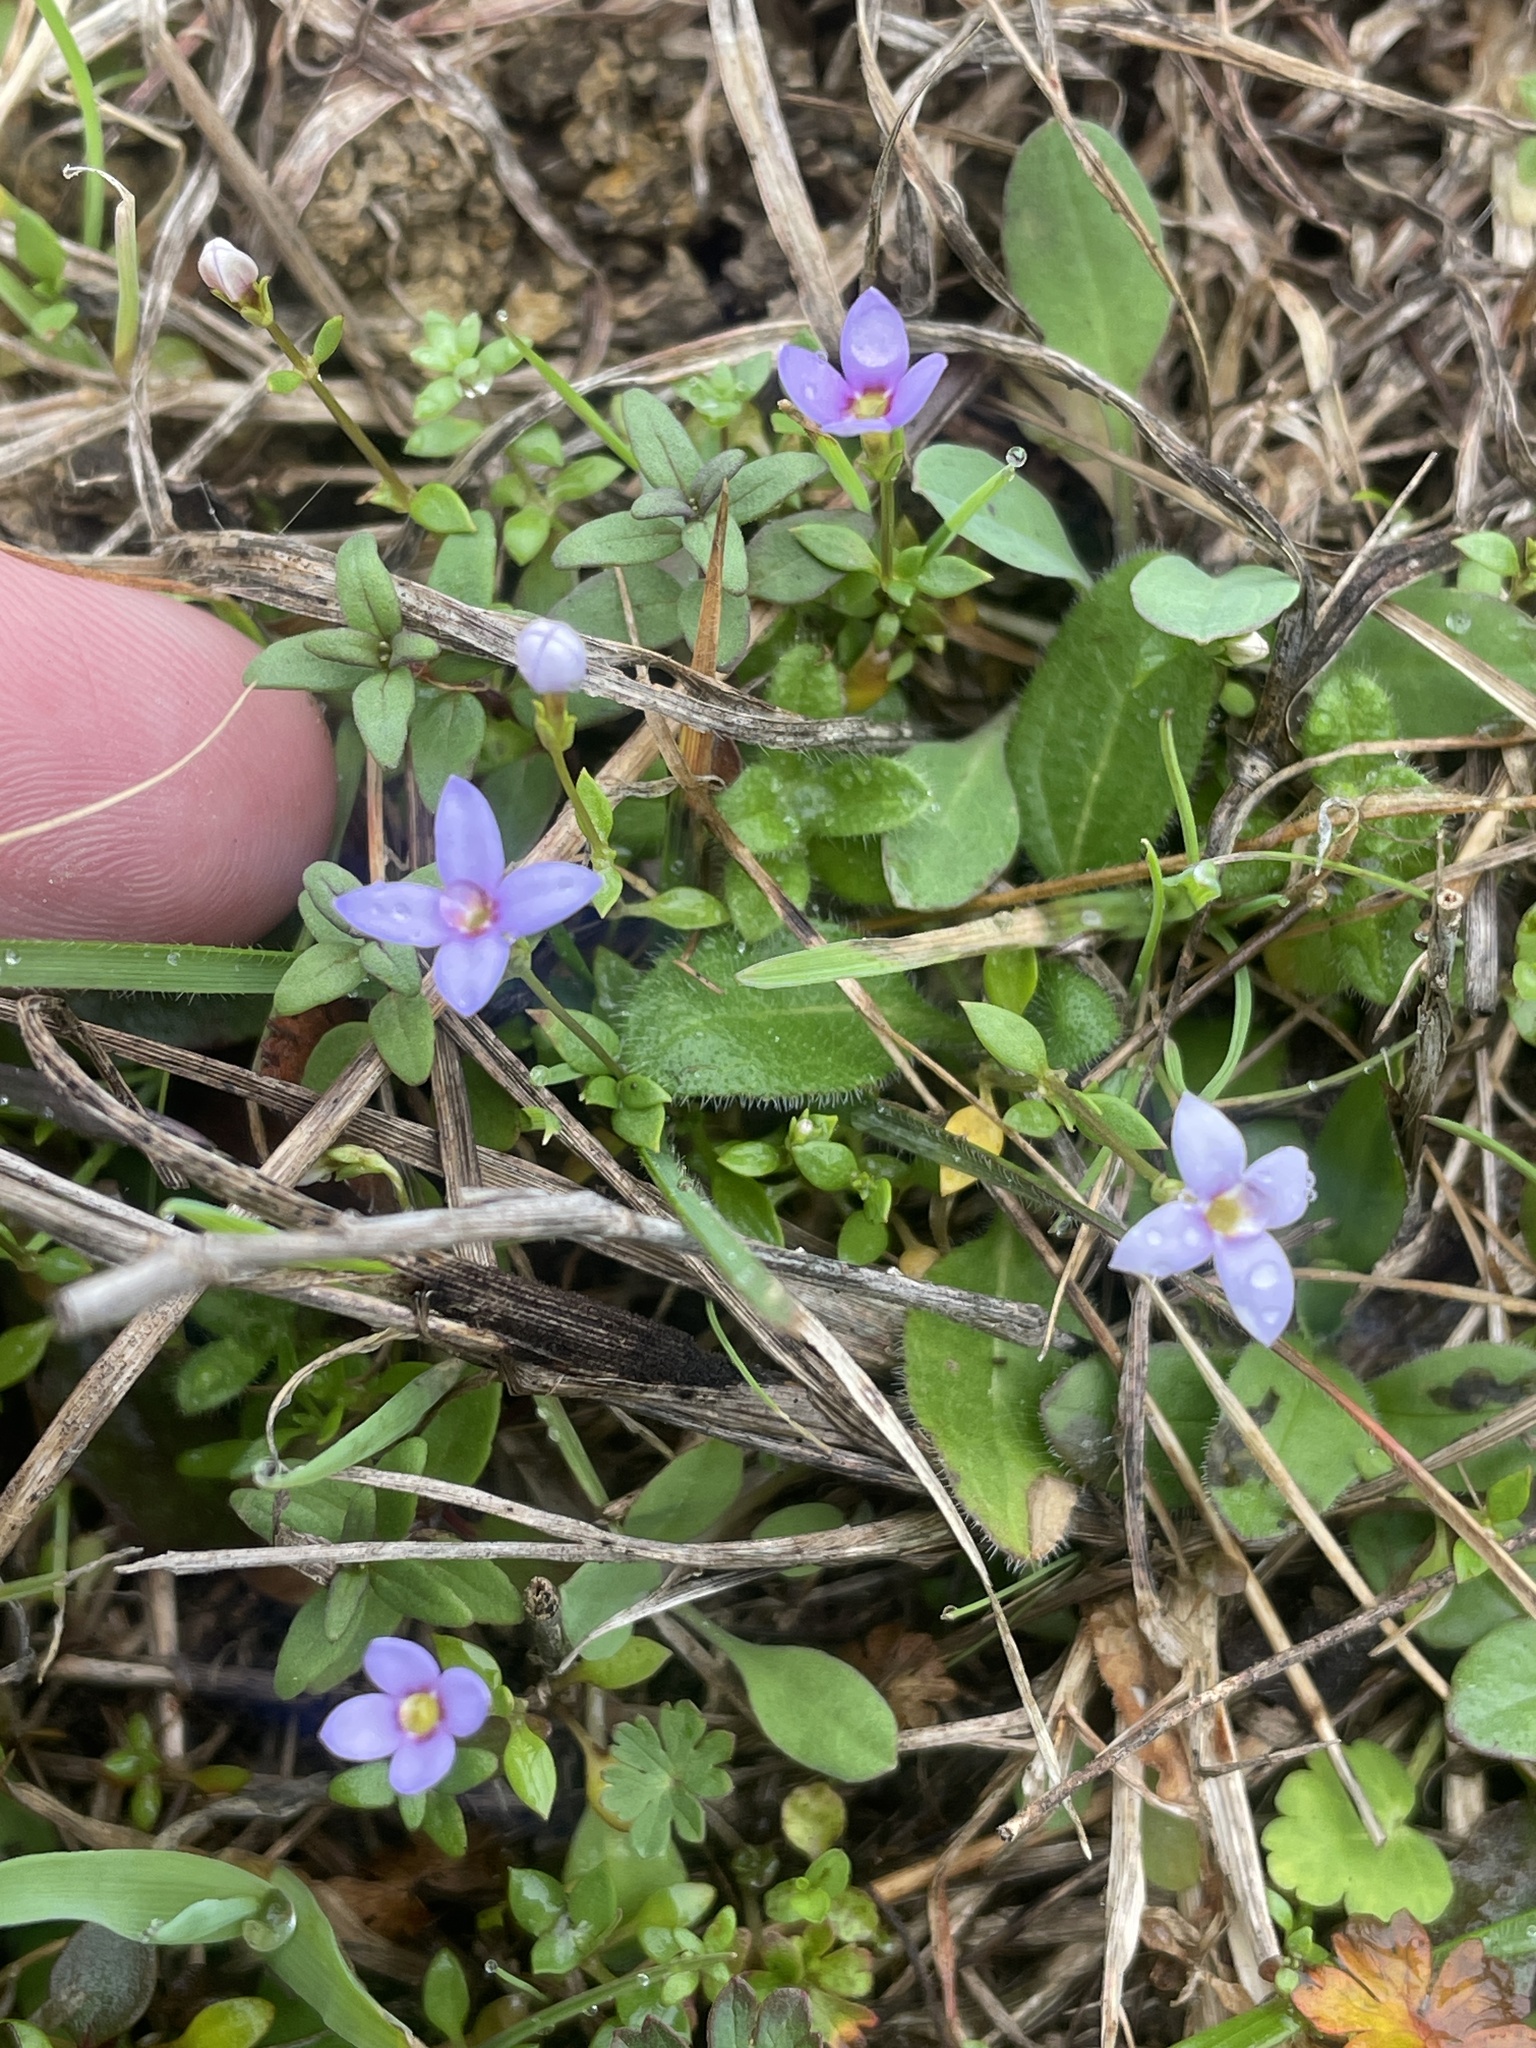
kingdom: Plantae
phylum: Tracheophyta
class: Magnoliopsida
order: Gentianales
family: Rubiaceae
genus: Houstonia
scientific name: Houstonia pusilla
